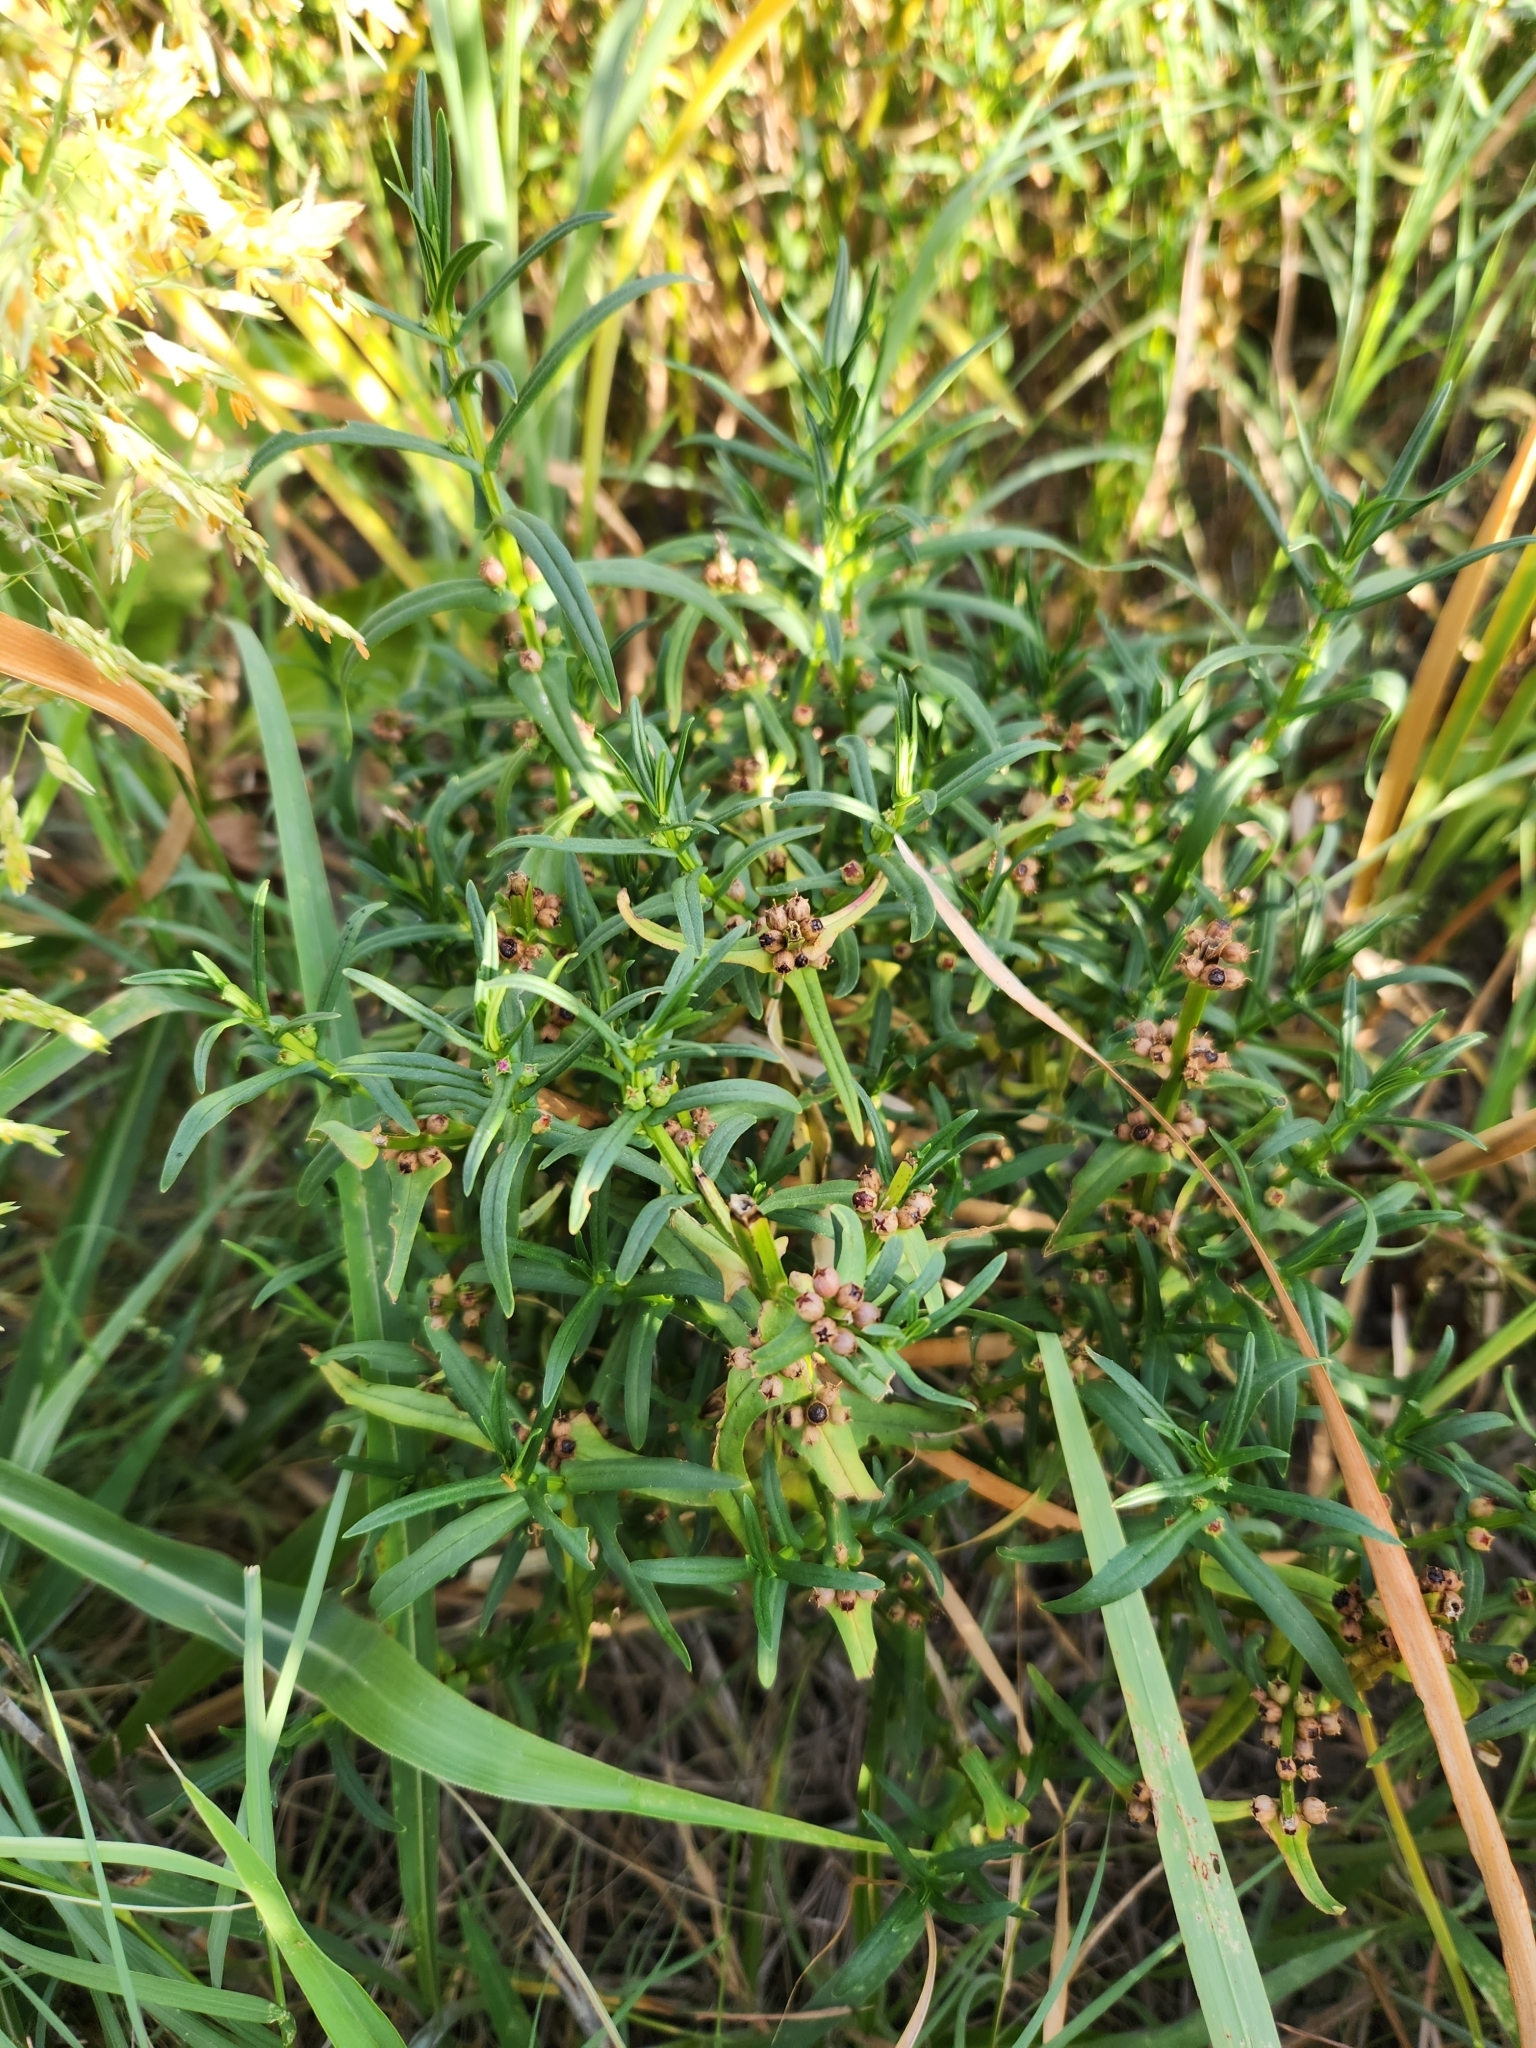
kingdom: Plantae
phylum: Tracheophyta
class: Magnoliopsida
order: Myrtales
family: Lythraceae
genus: Ammannia
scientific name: Ammannia coccinea
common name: Valley redstem
